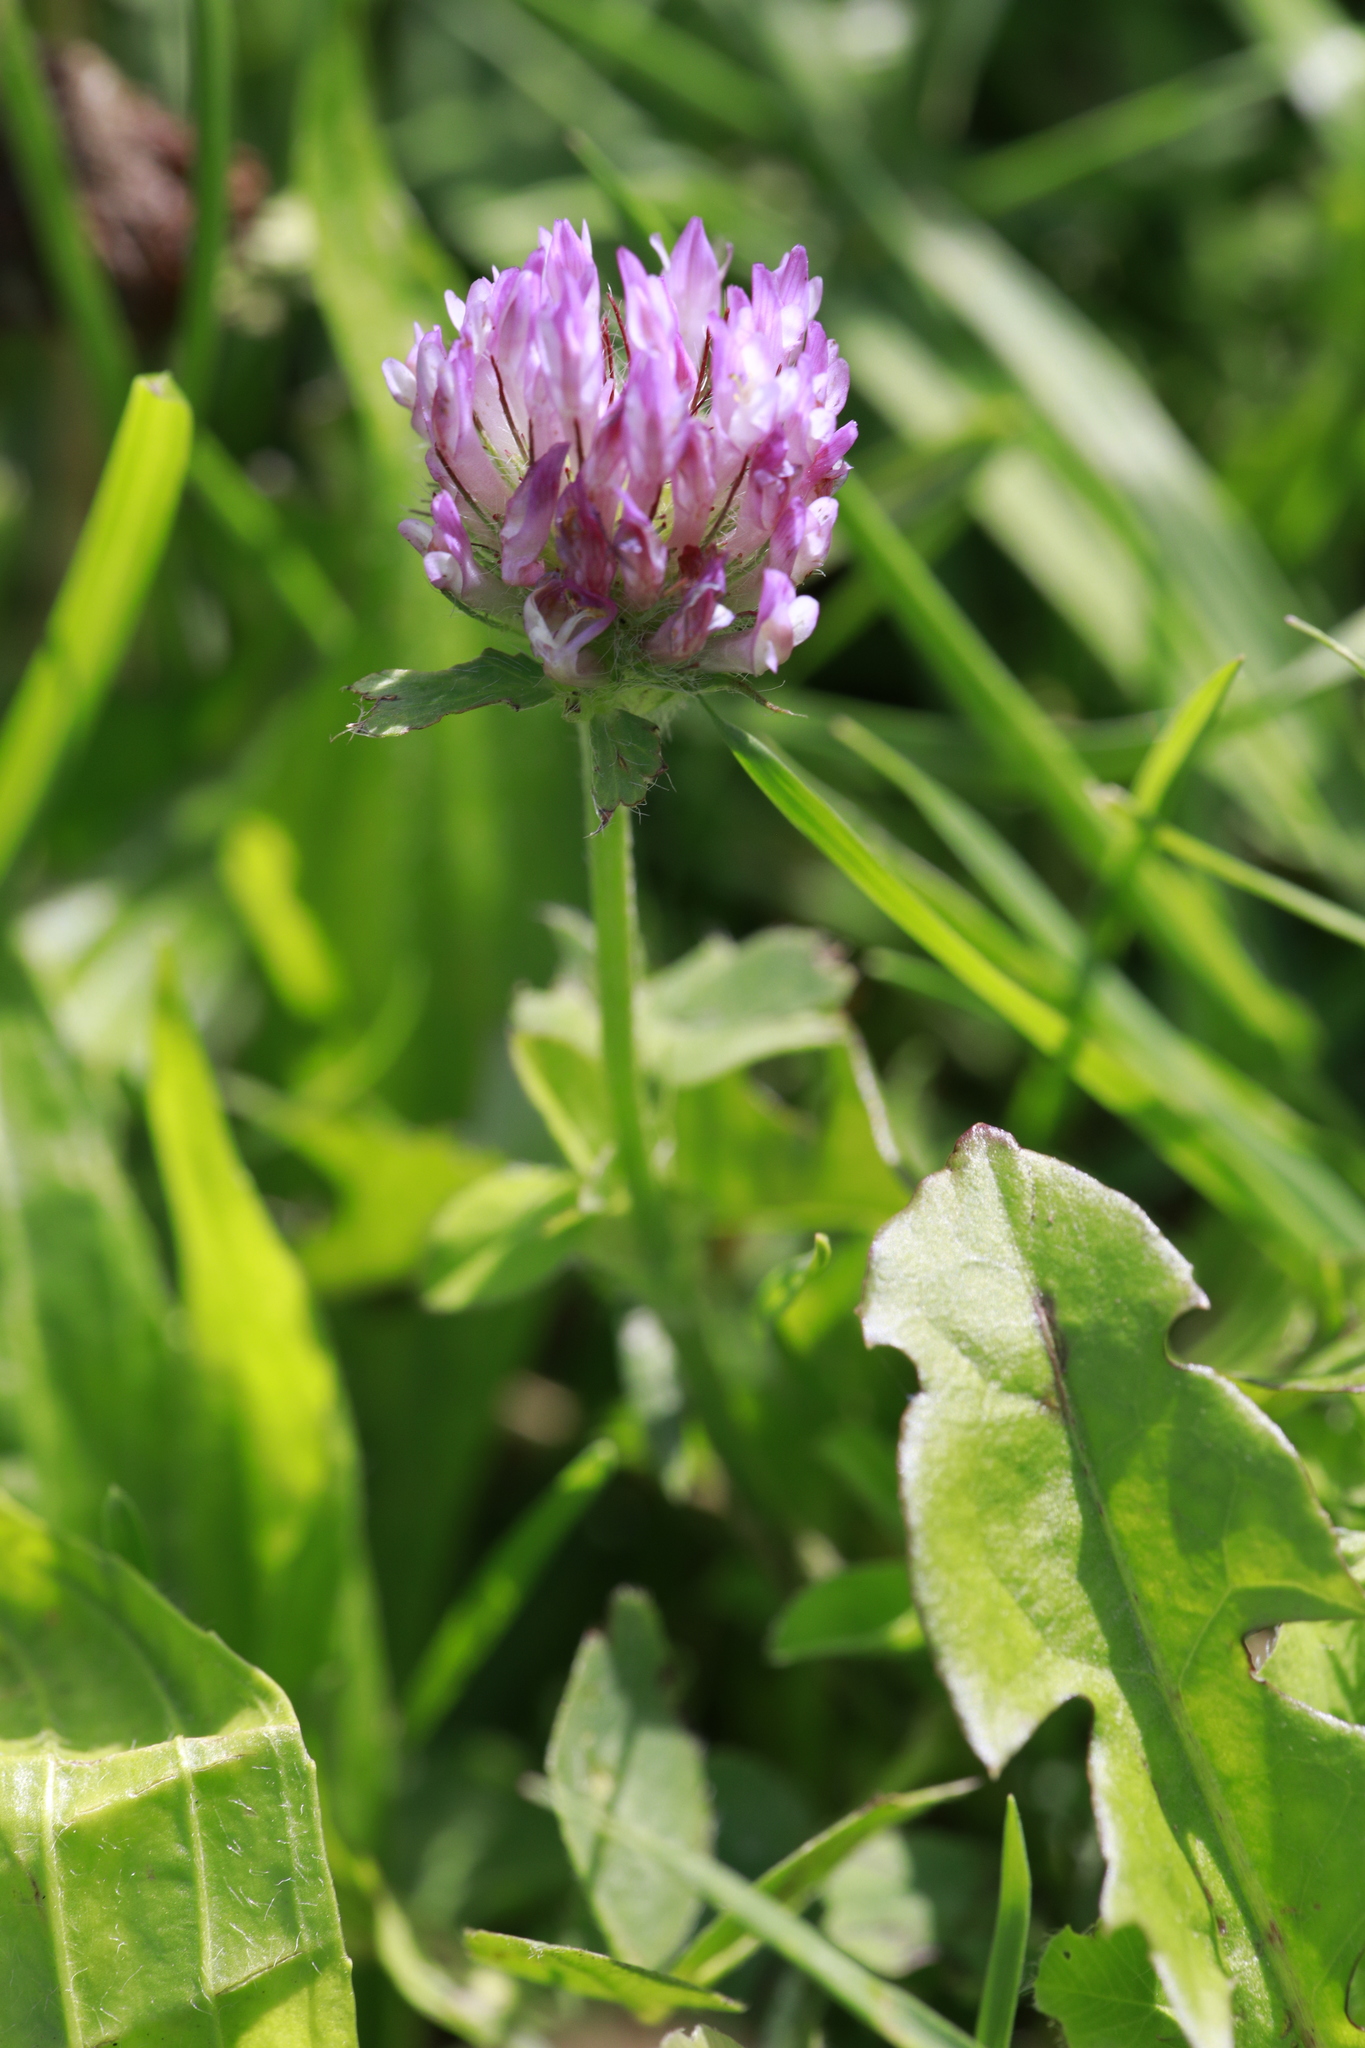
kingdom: Plantae
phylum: Tracheophyta
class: Magnoliopsida
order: Fabales
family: Fabaceae
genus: Trifolium
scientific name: Trifolium pratense
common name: Red clover
